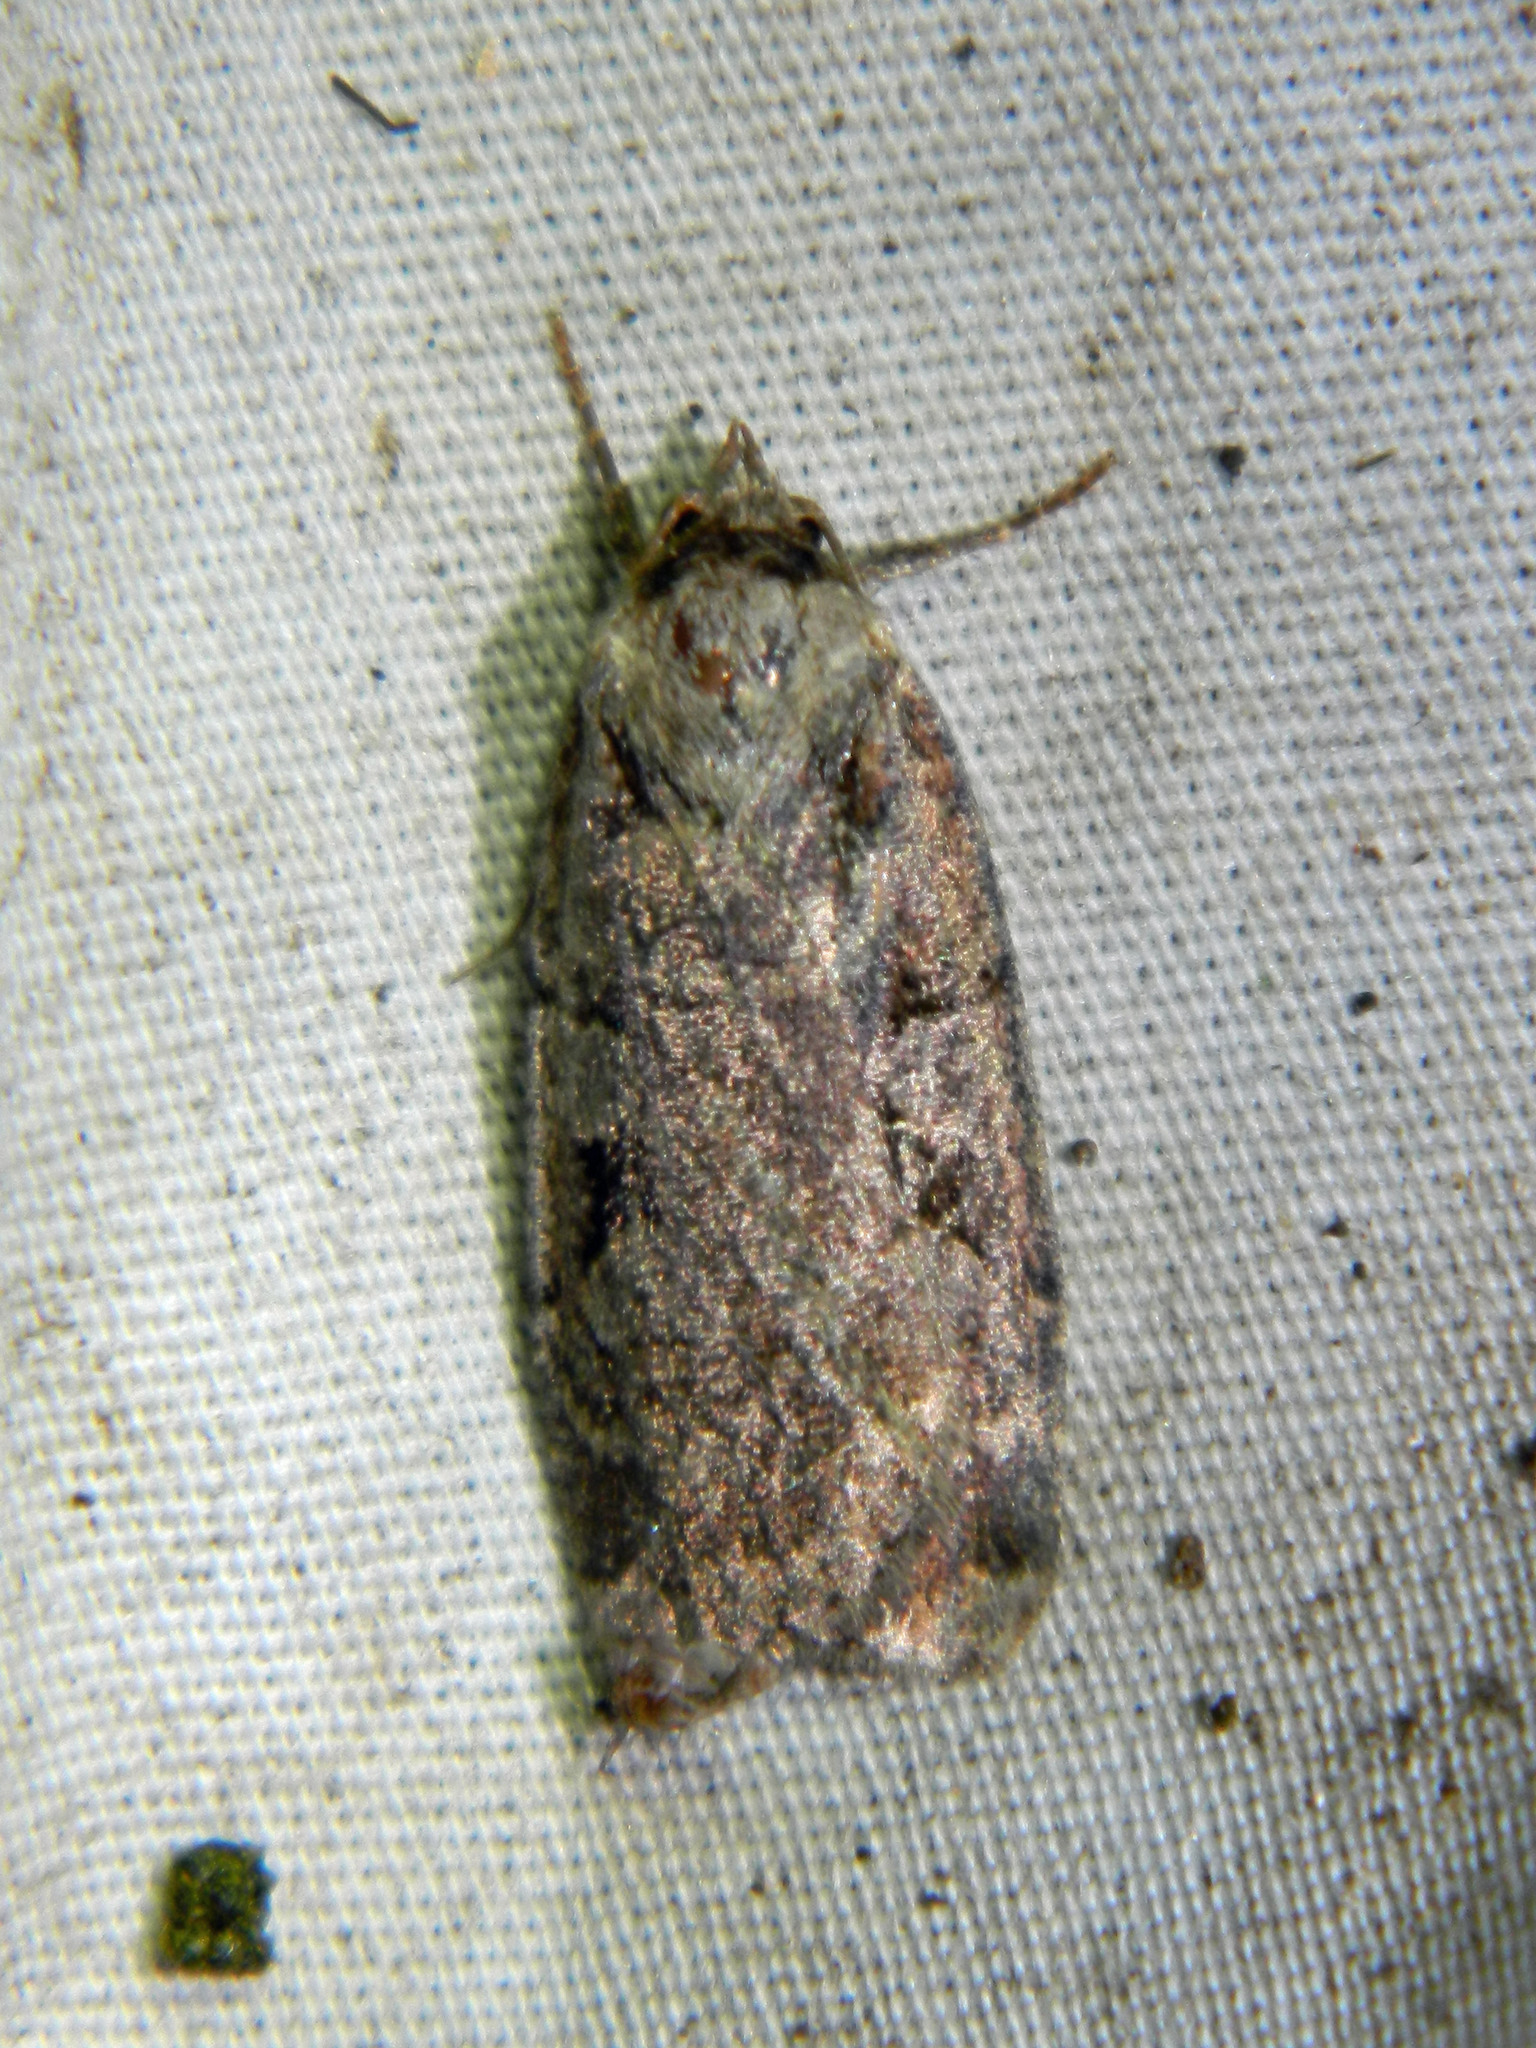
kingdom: Animalia
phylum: Arthropoda
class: Insecta
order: Lepidoptera
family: Noctuidae
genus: Eueretagrotis
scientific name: Eueretagrotis perattentus
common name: Two-spot dart moth
